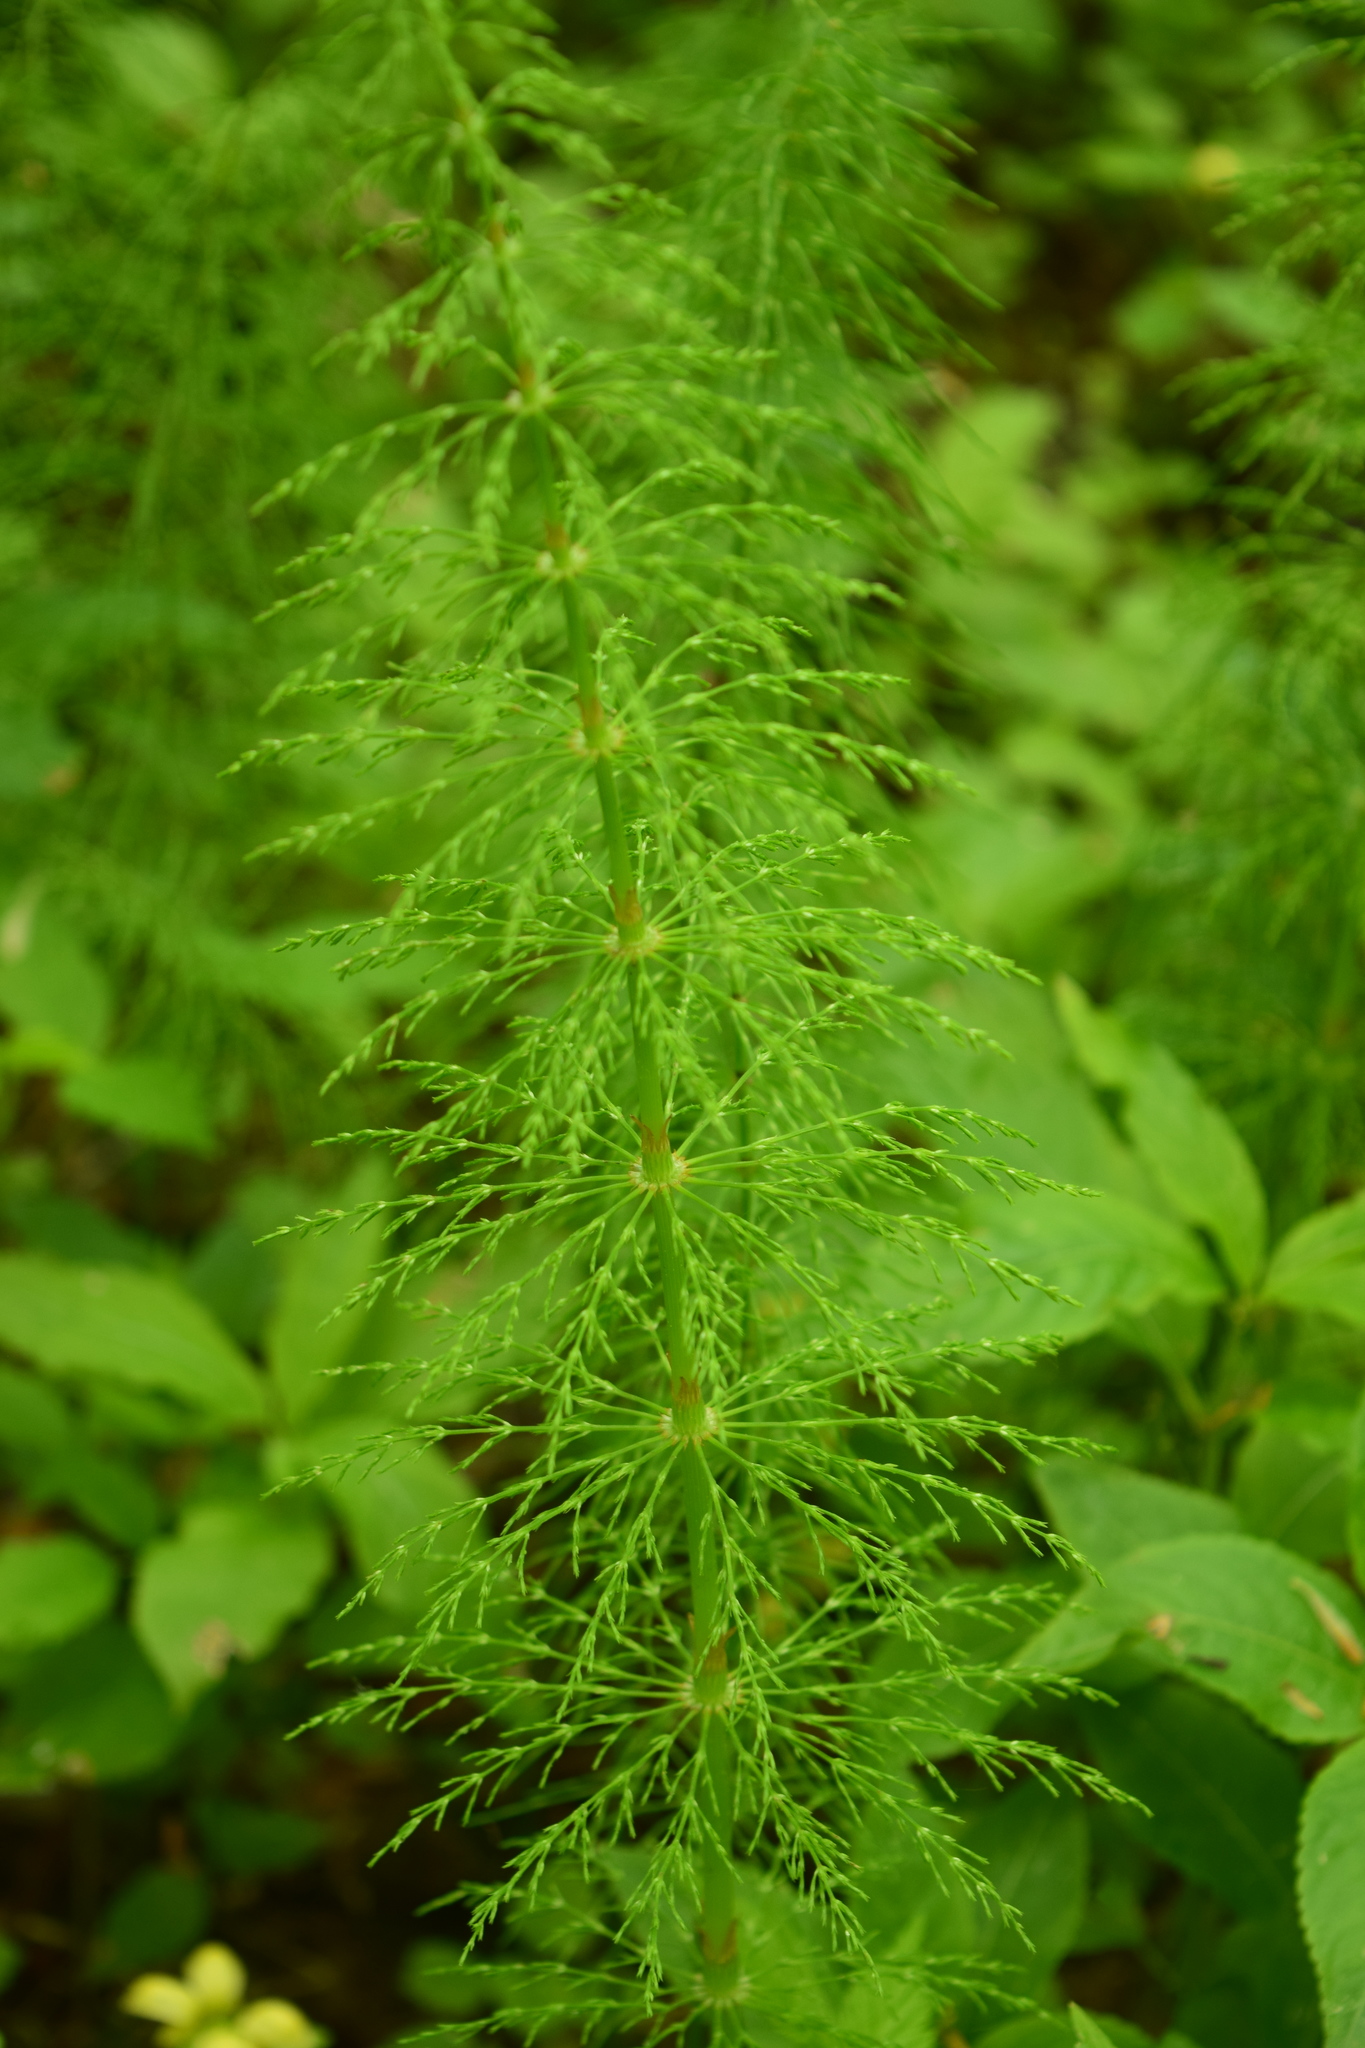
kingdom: Plantae
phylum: Tracheophyta
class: Polypodiopsida
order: Equisetales
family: Equisetaceae
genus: Equisetum
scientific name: Equisetum sylvaticum
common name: Wood horsetail
